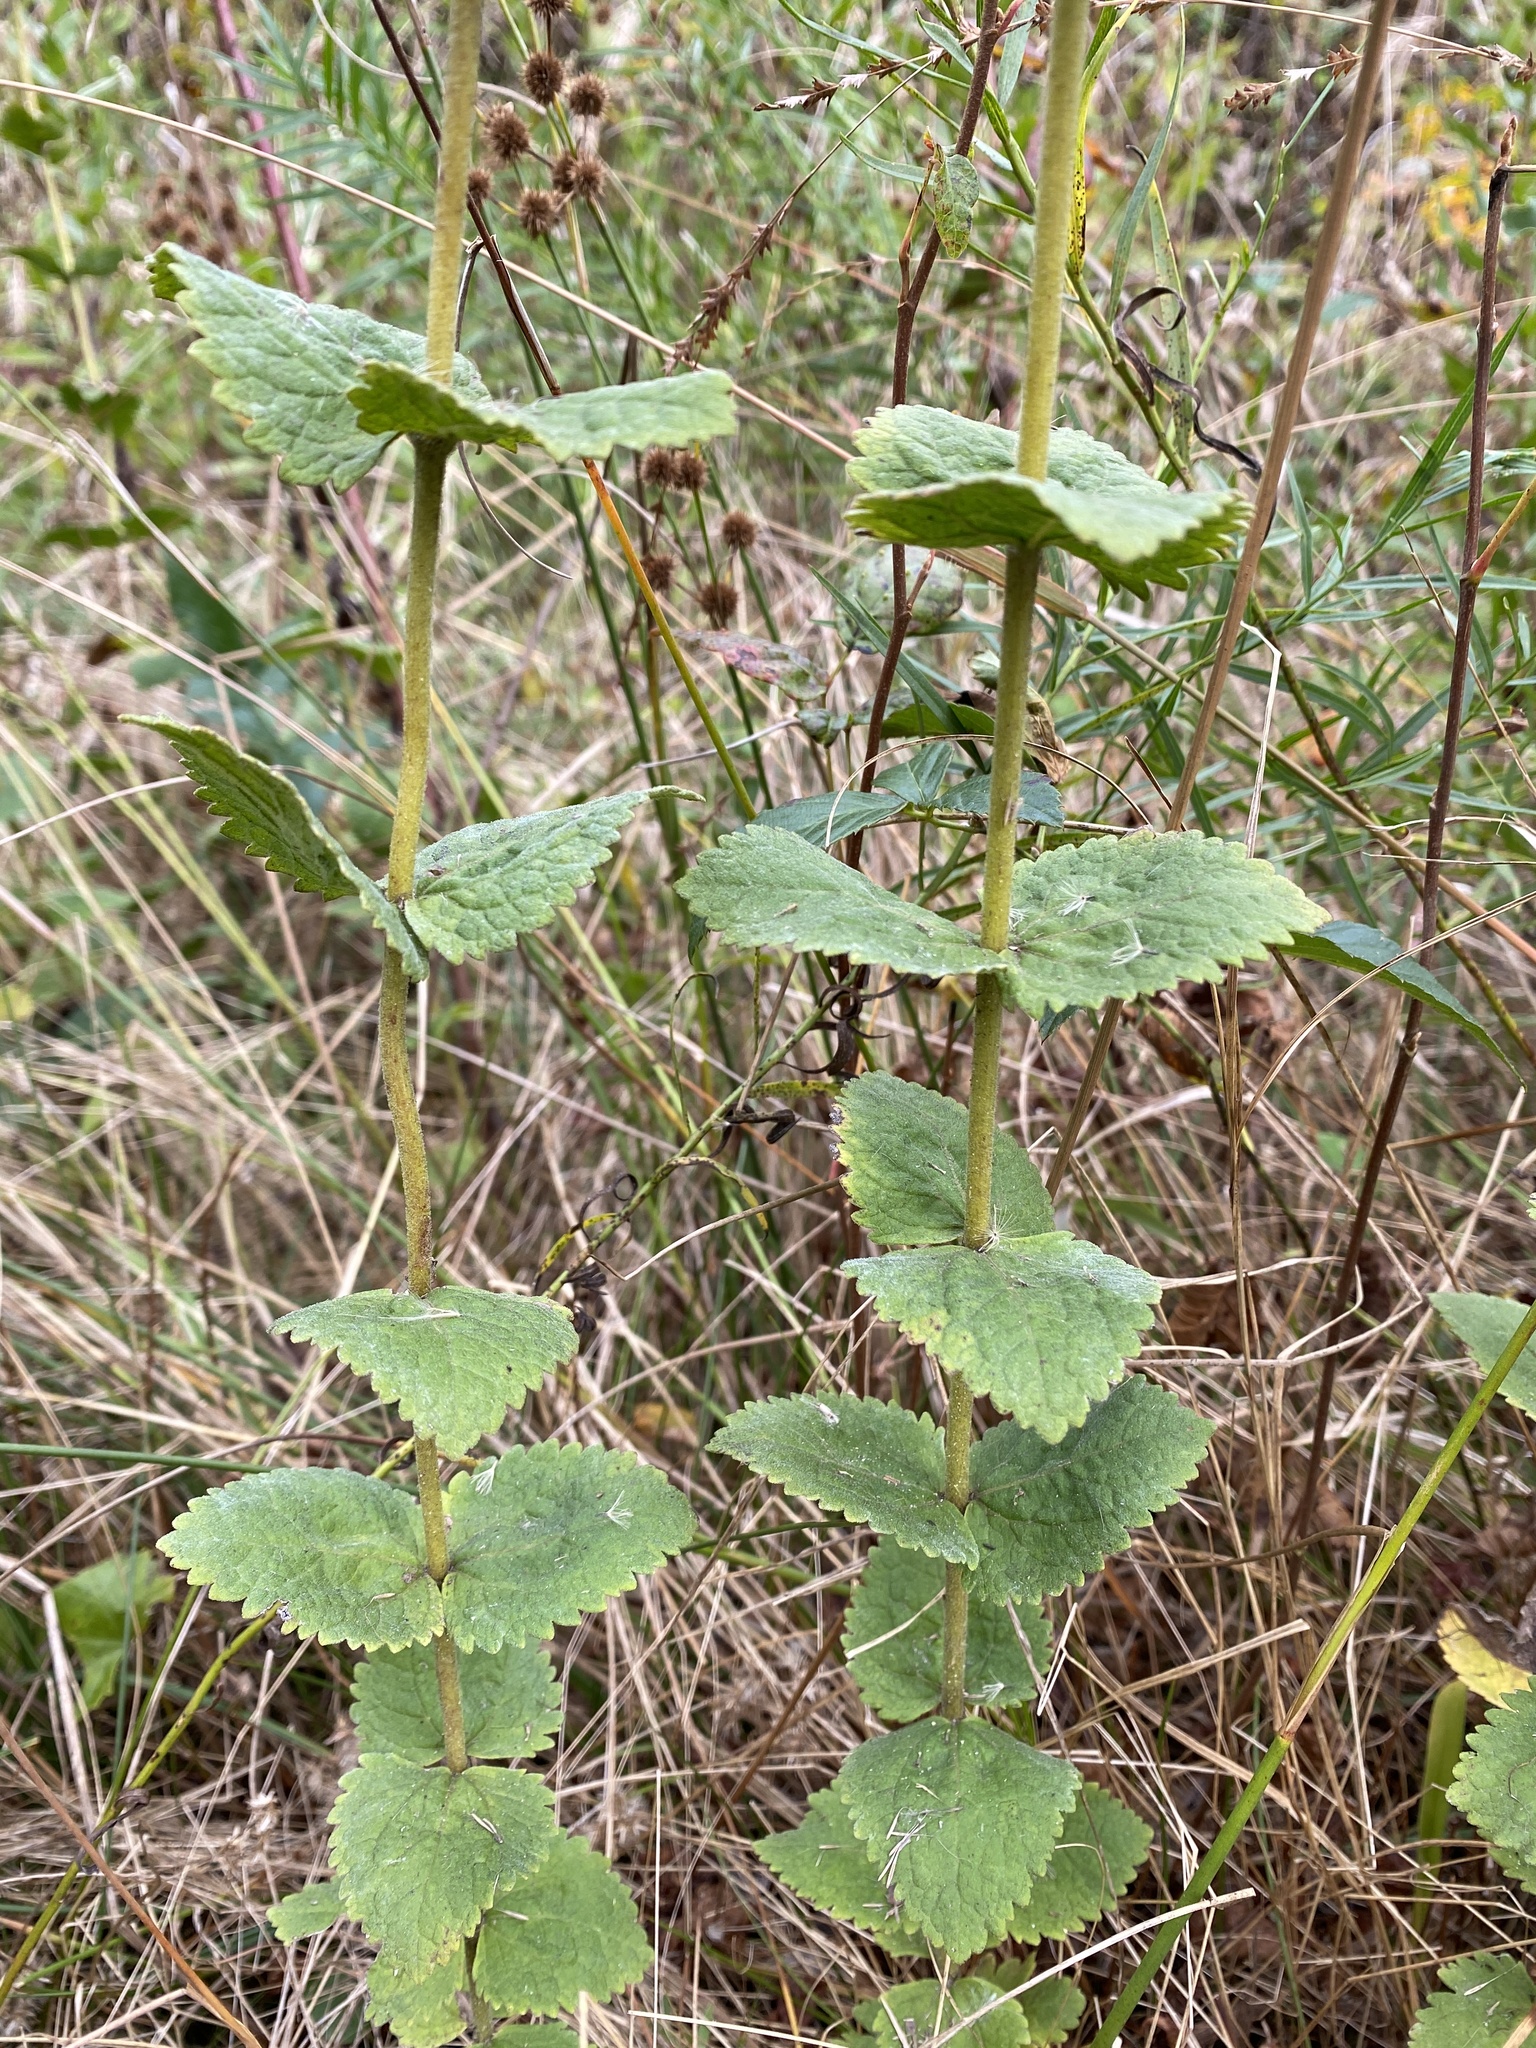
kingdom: Plantae
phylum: Tracheophyta
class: Magnoliopsida
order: Asterales
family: Asteraceae
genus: Eupatorium
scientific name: Eupatorium rotundifolium
